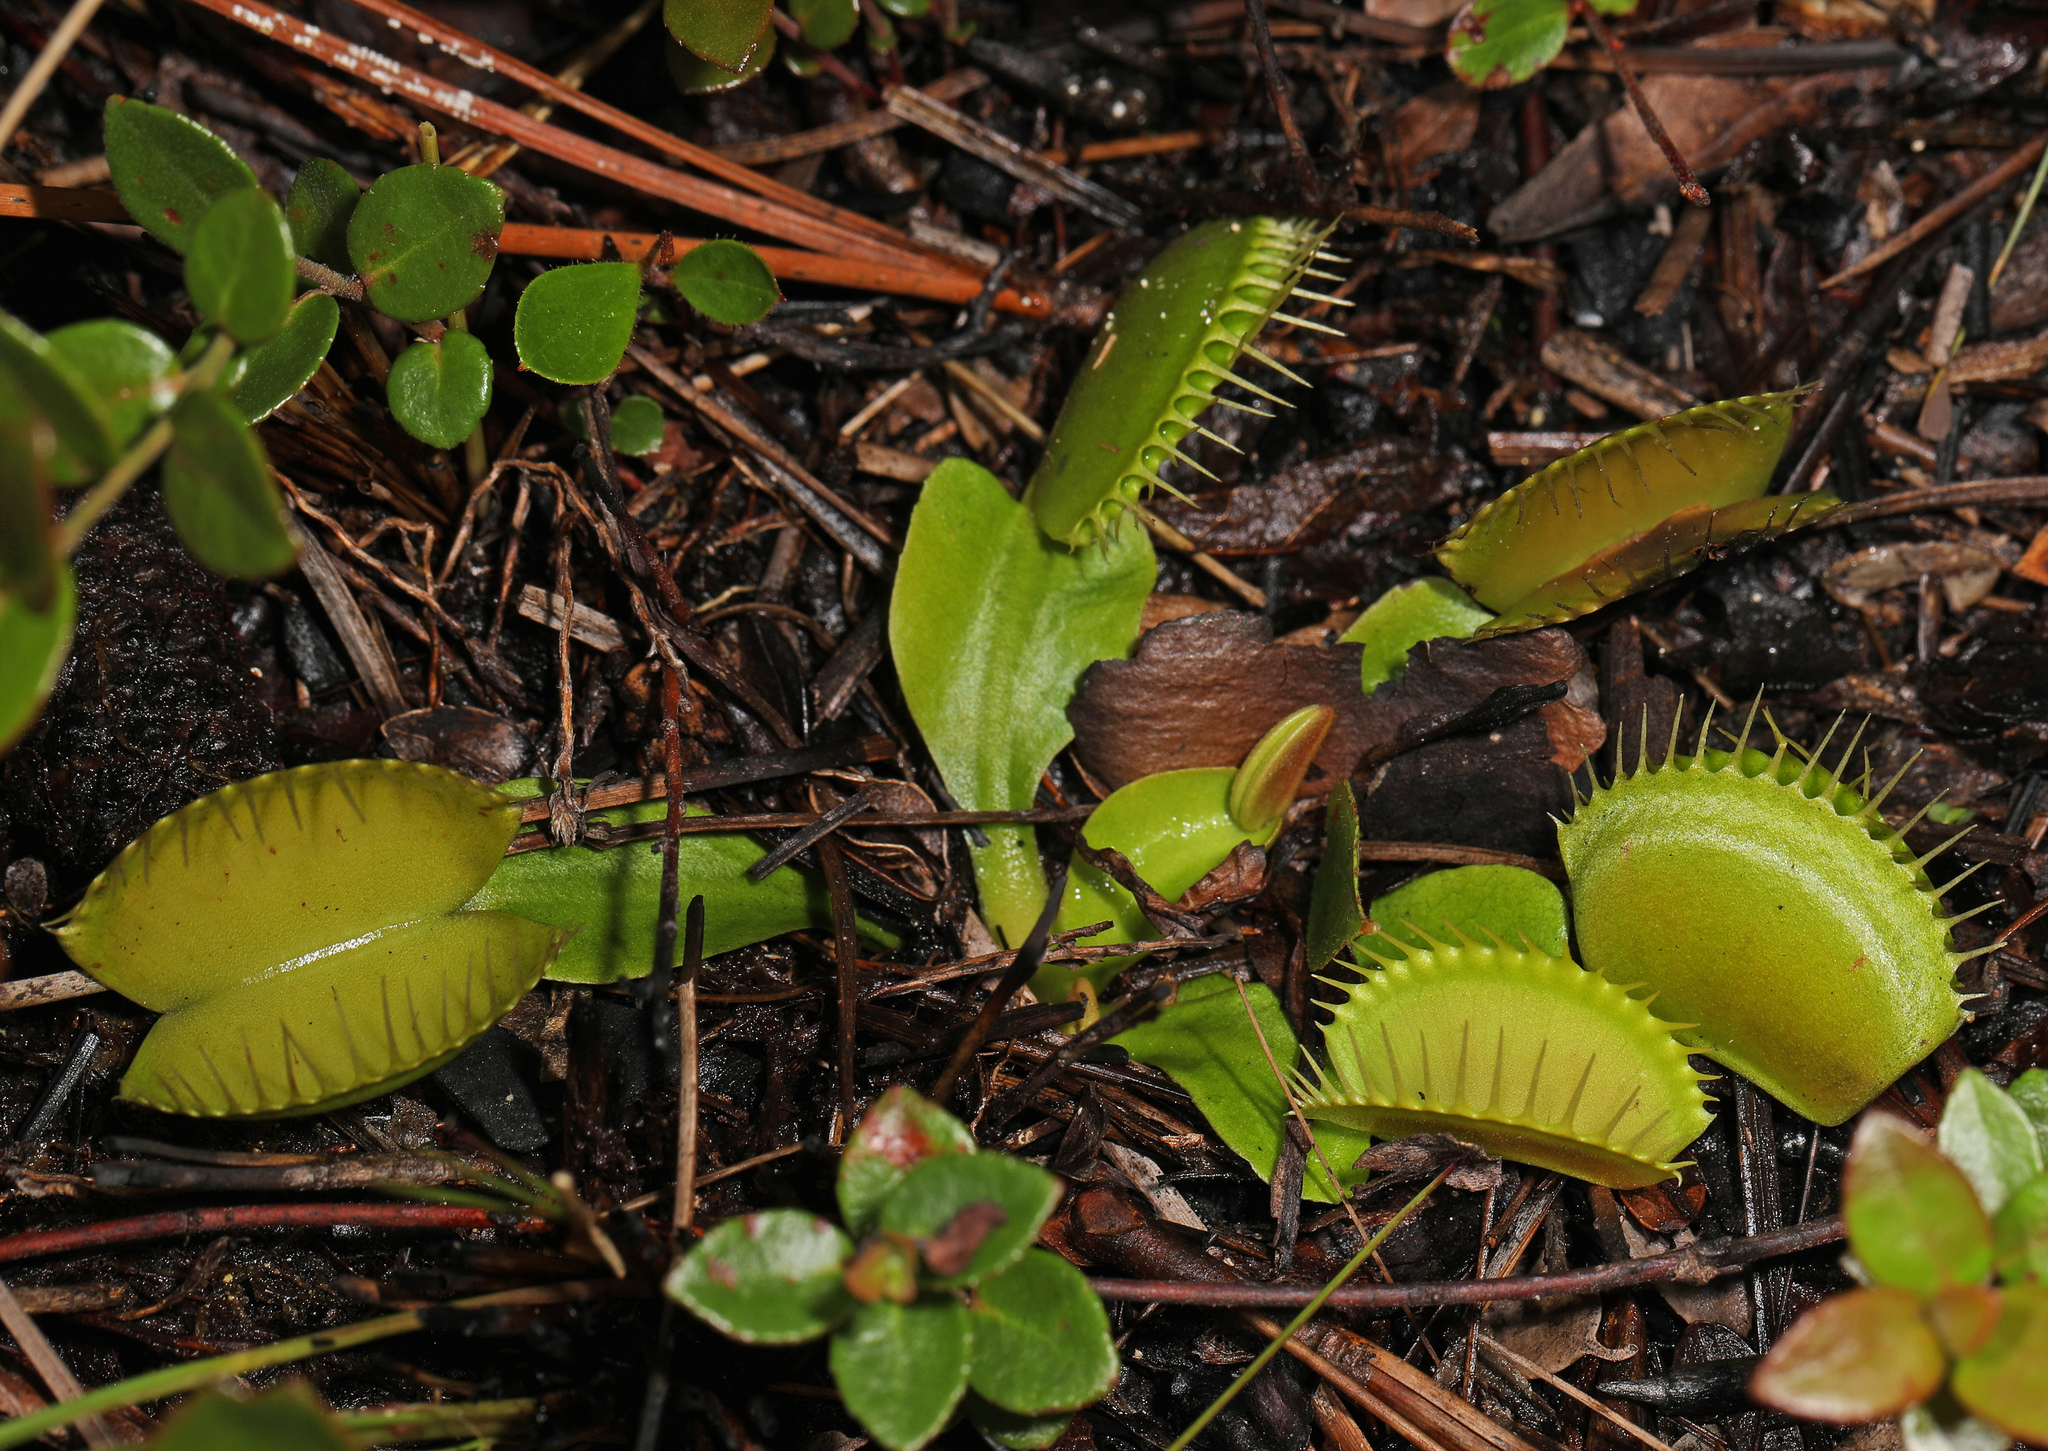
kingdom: Plantae
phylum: Tracheophyta
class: Magnoliopsida
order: Caryophyllales
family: Droseraceae
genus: Dionaea
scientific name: Dionaea muscipula
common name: Venus flytrap
